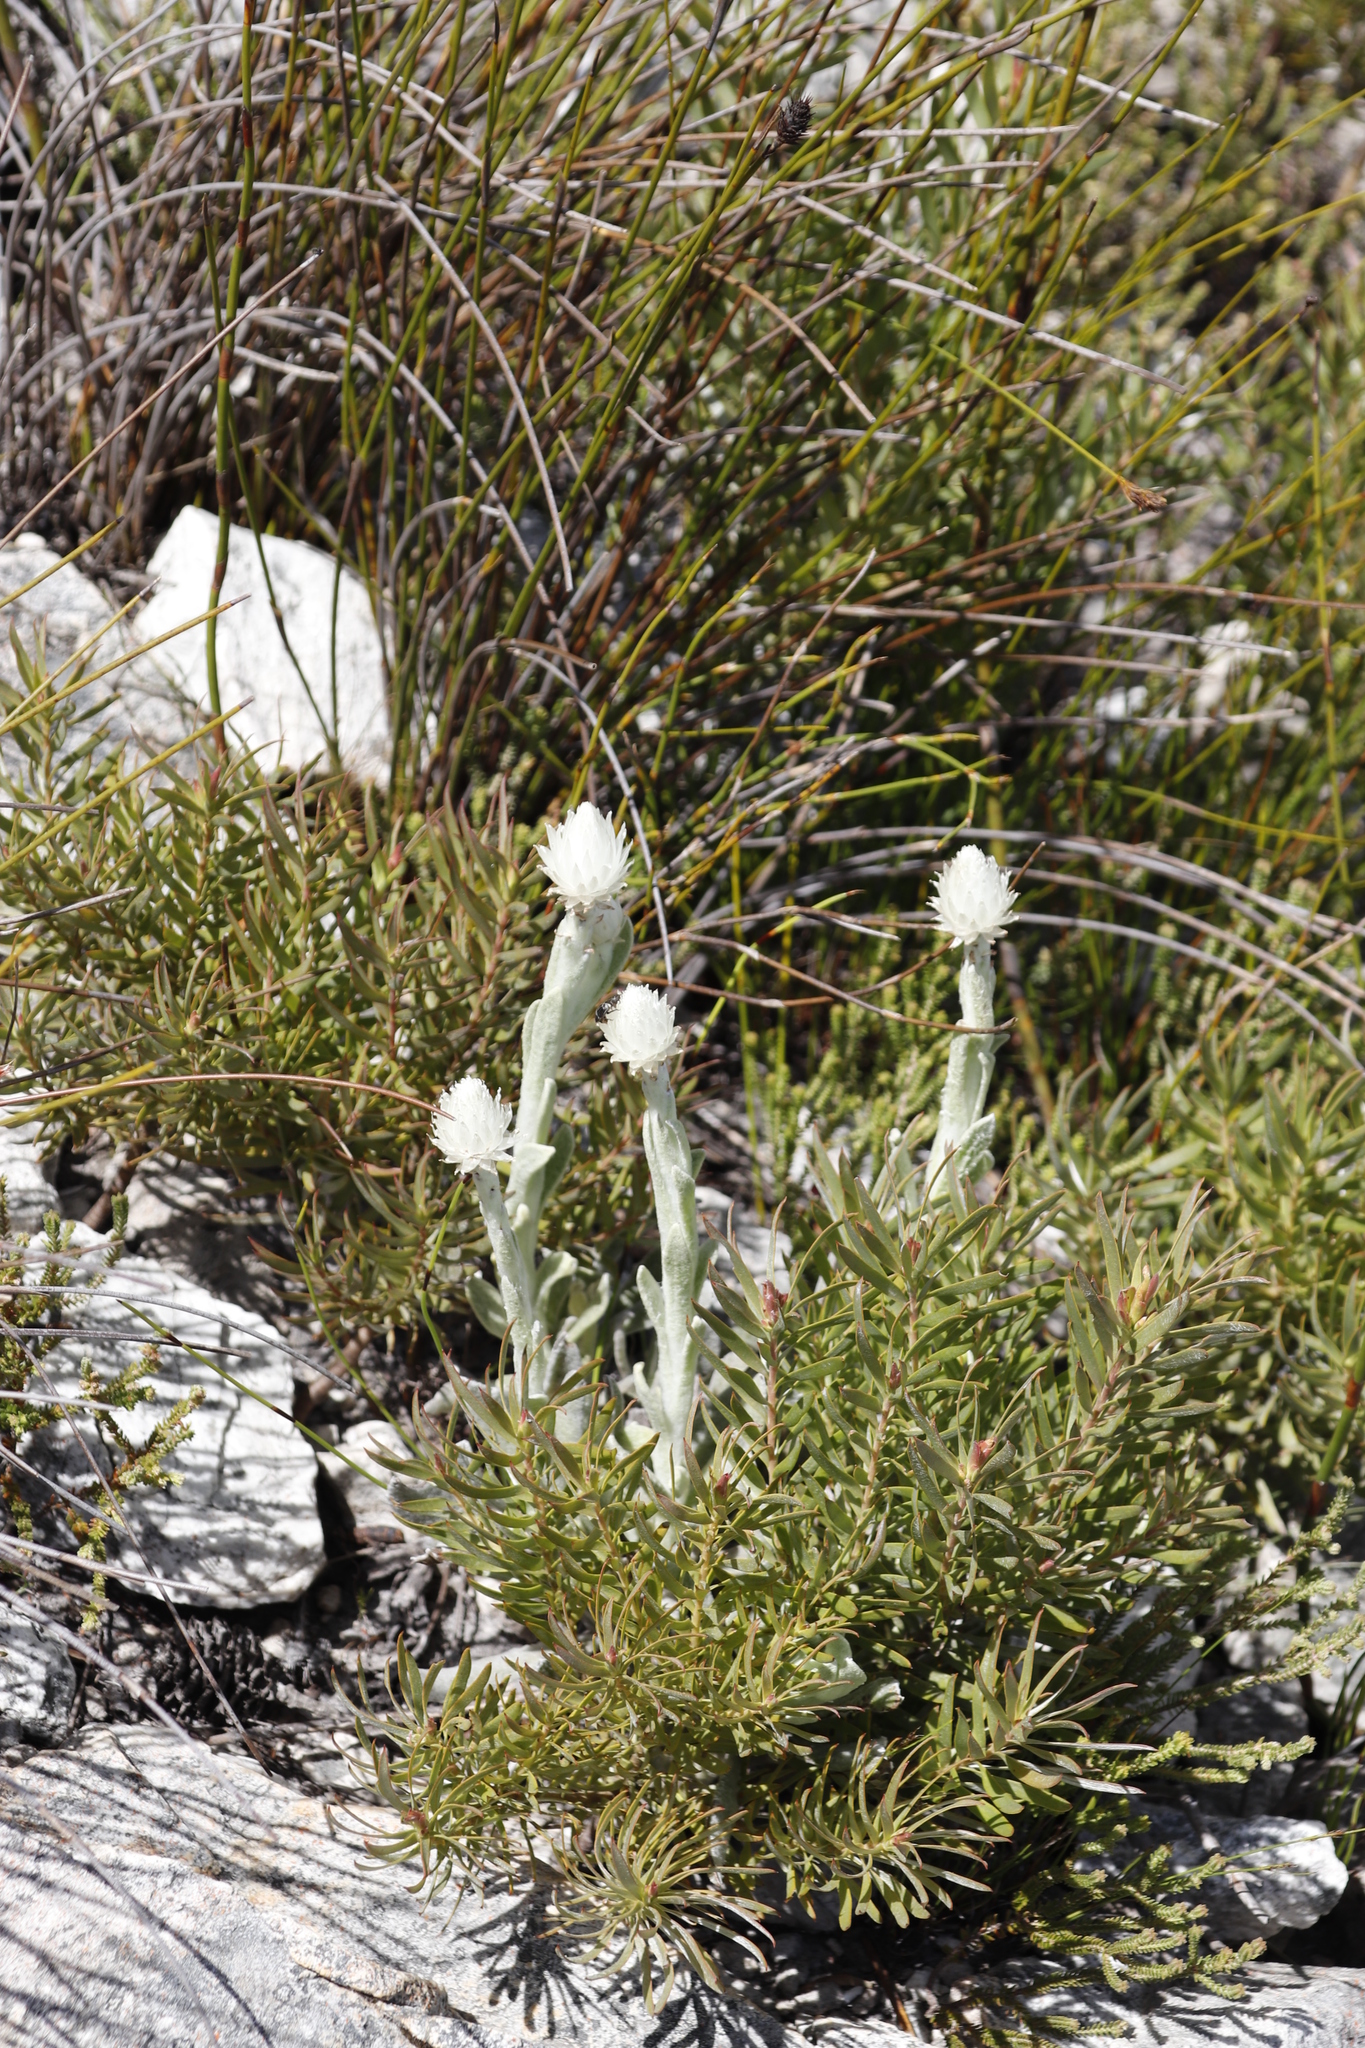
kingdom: Plantae
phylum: Tracheophyta
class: Magnoliopsida
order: Asterales
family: Asteraceae
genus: Syncarpha
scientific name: Syncarpha vestita
